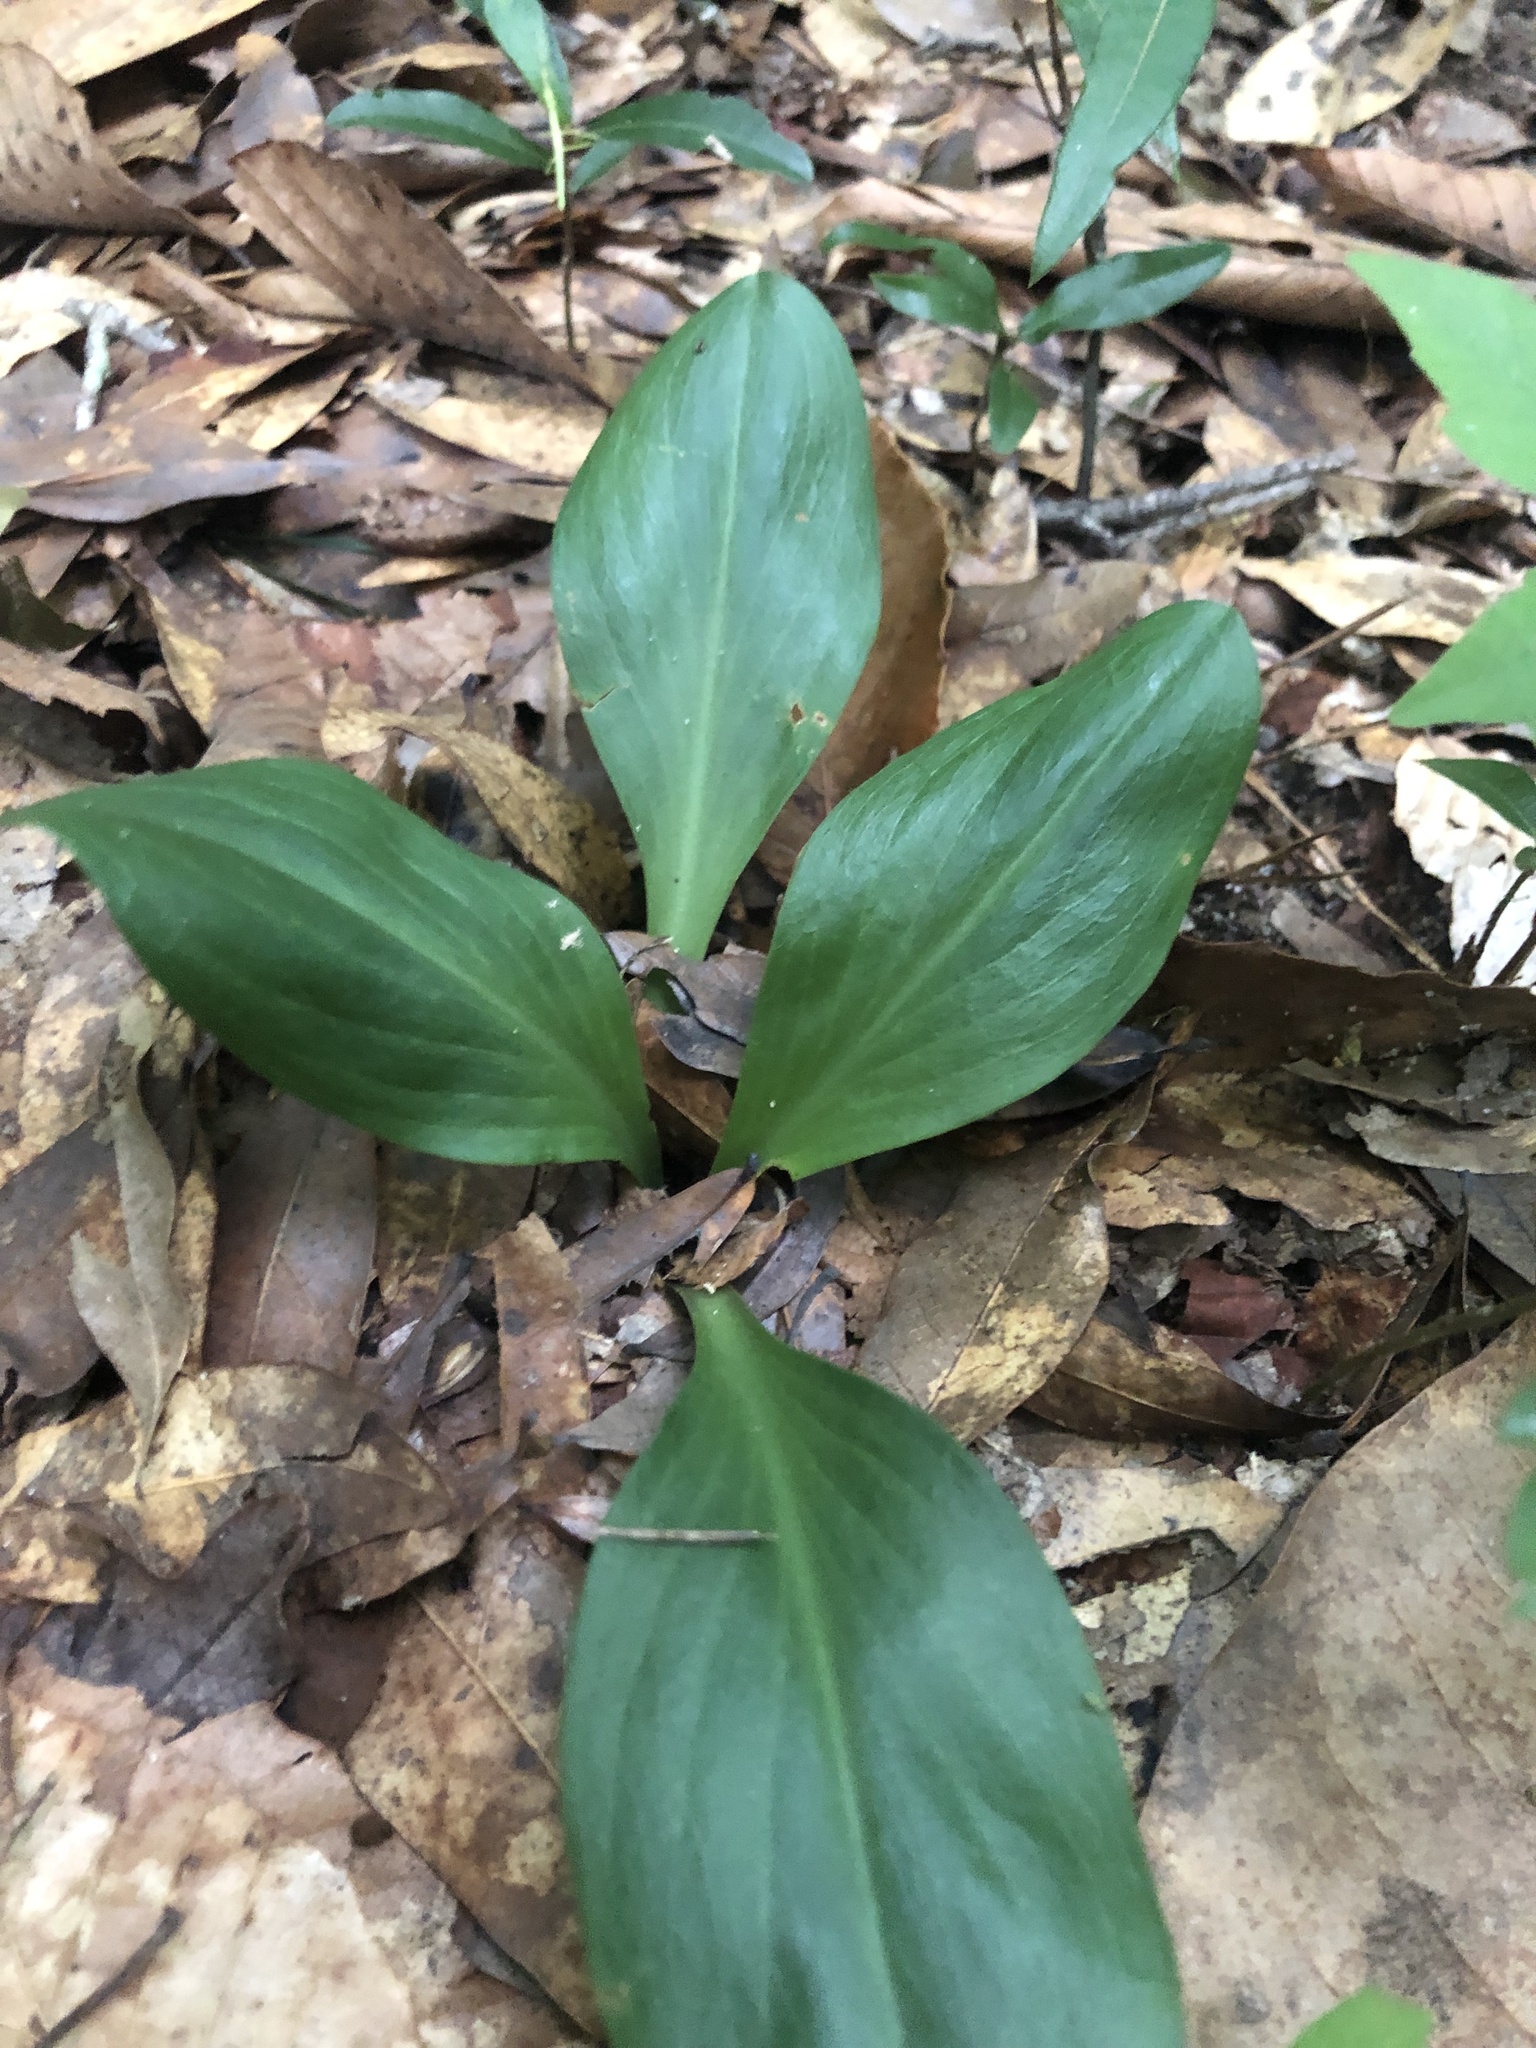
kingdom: Plantae
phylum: Tracheophyta
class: Liliopsida
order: Liliales
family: Melanthiaceae
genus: Chamaelirium
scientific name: Chamaelirium luteum
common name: Fairy-wand
